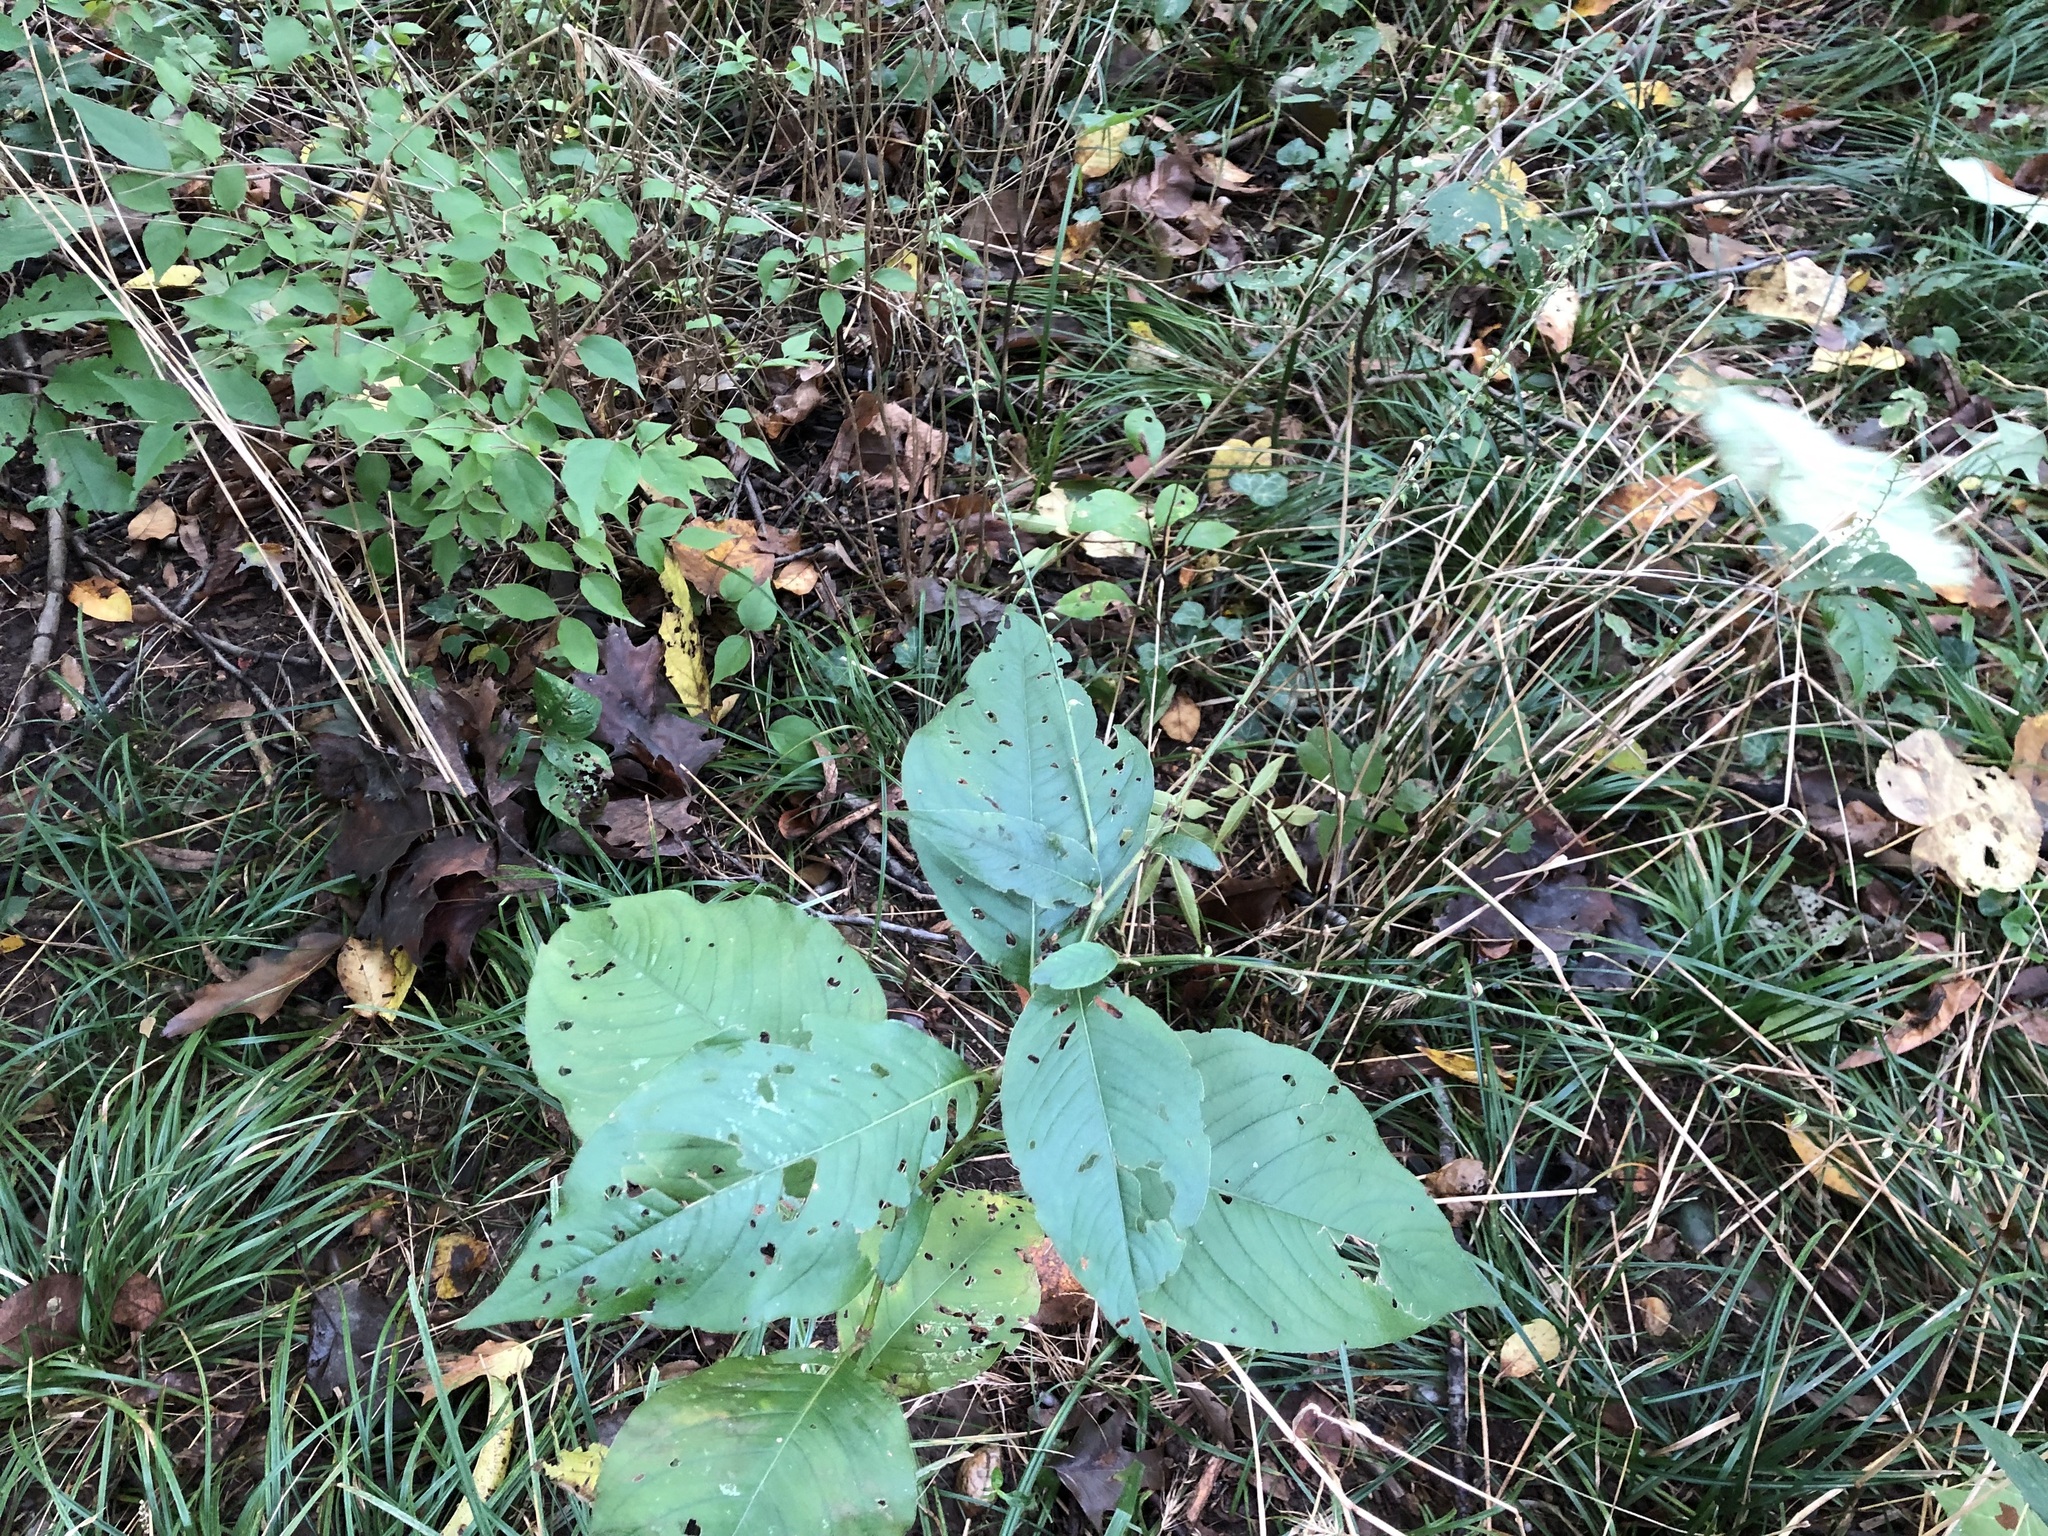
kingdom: Plantae
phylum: Tracheophyta
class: Magnoliopsida
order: Caryophyllales
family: Polygonaceae
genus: Persicaria
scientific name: Persicaria virginiana
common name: Jumpseed
